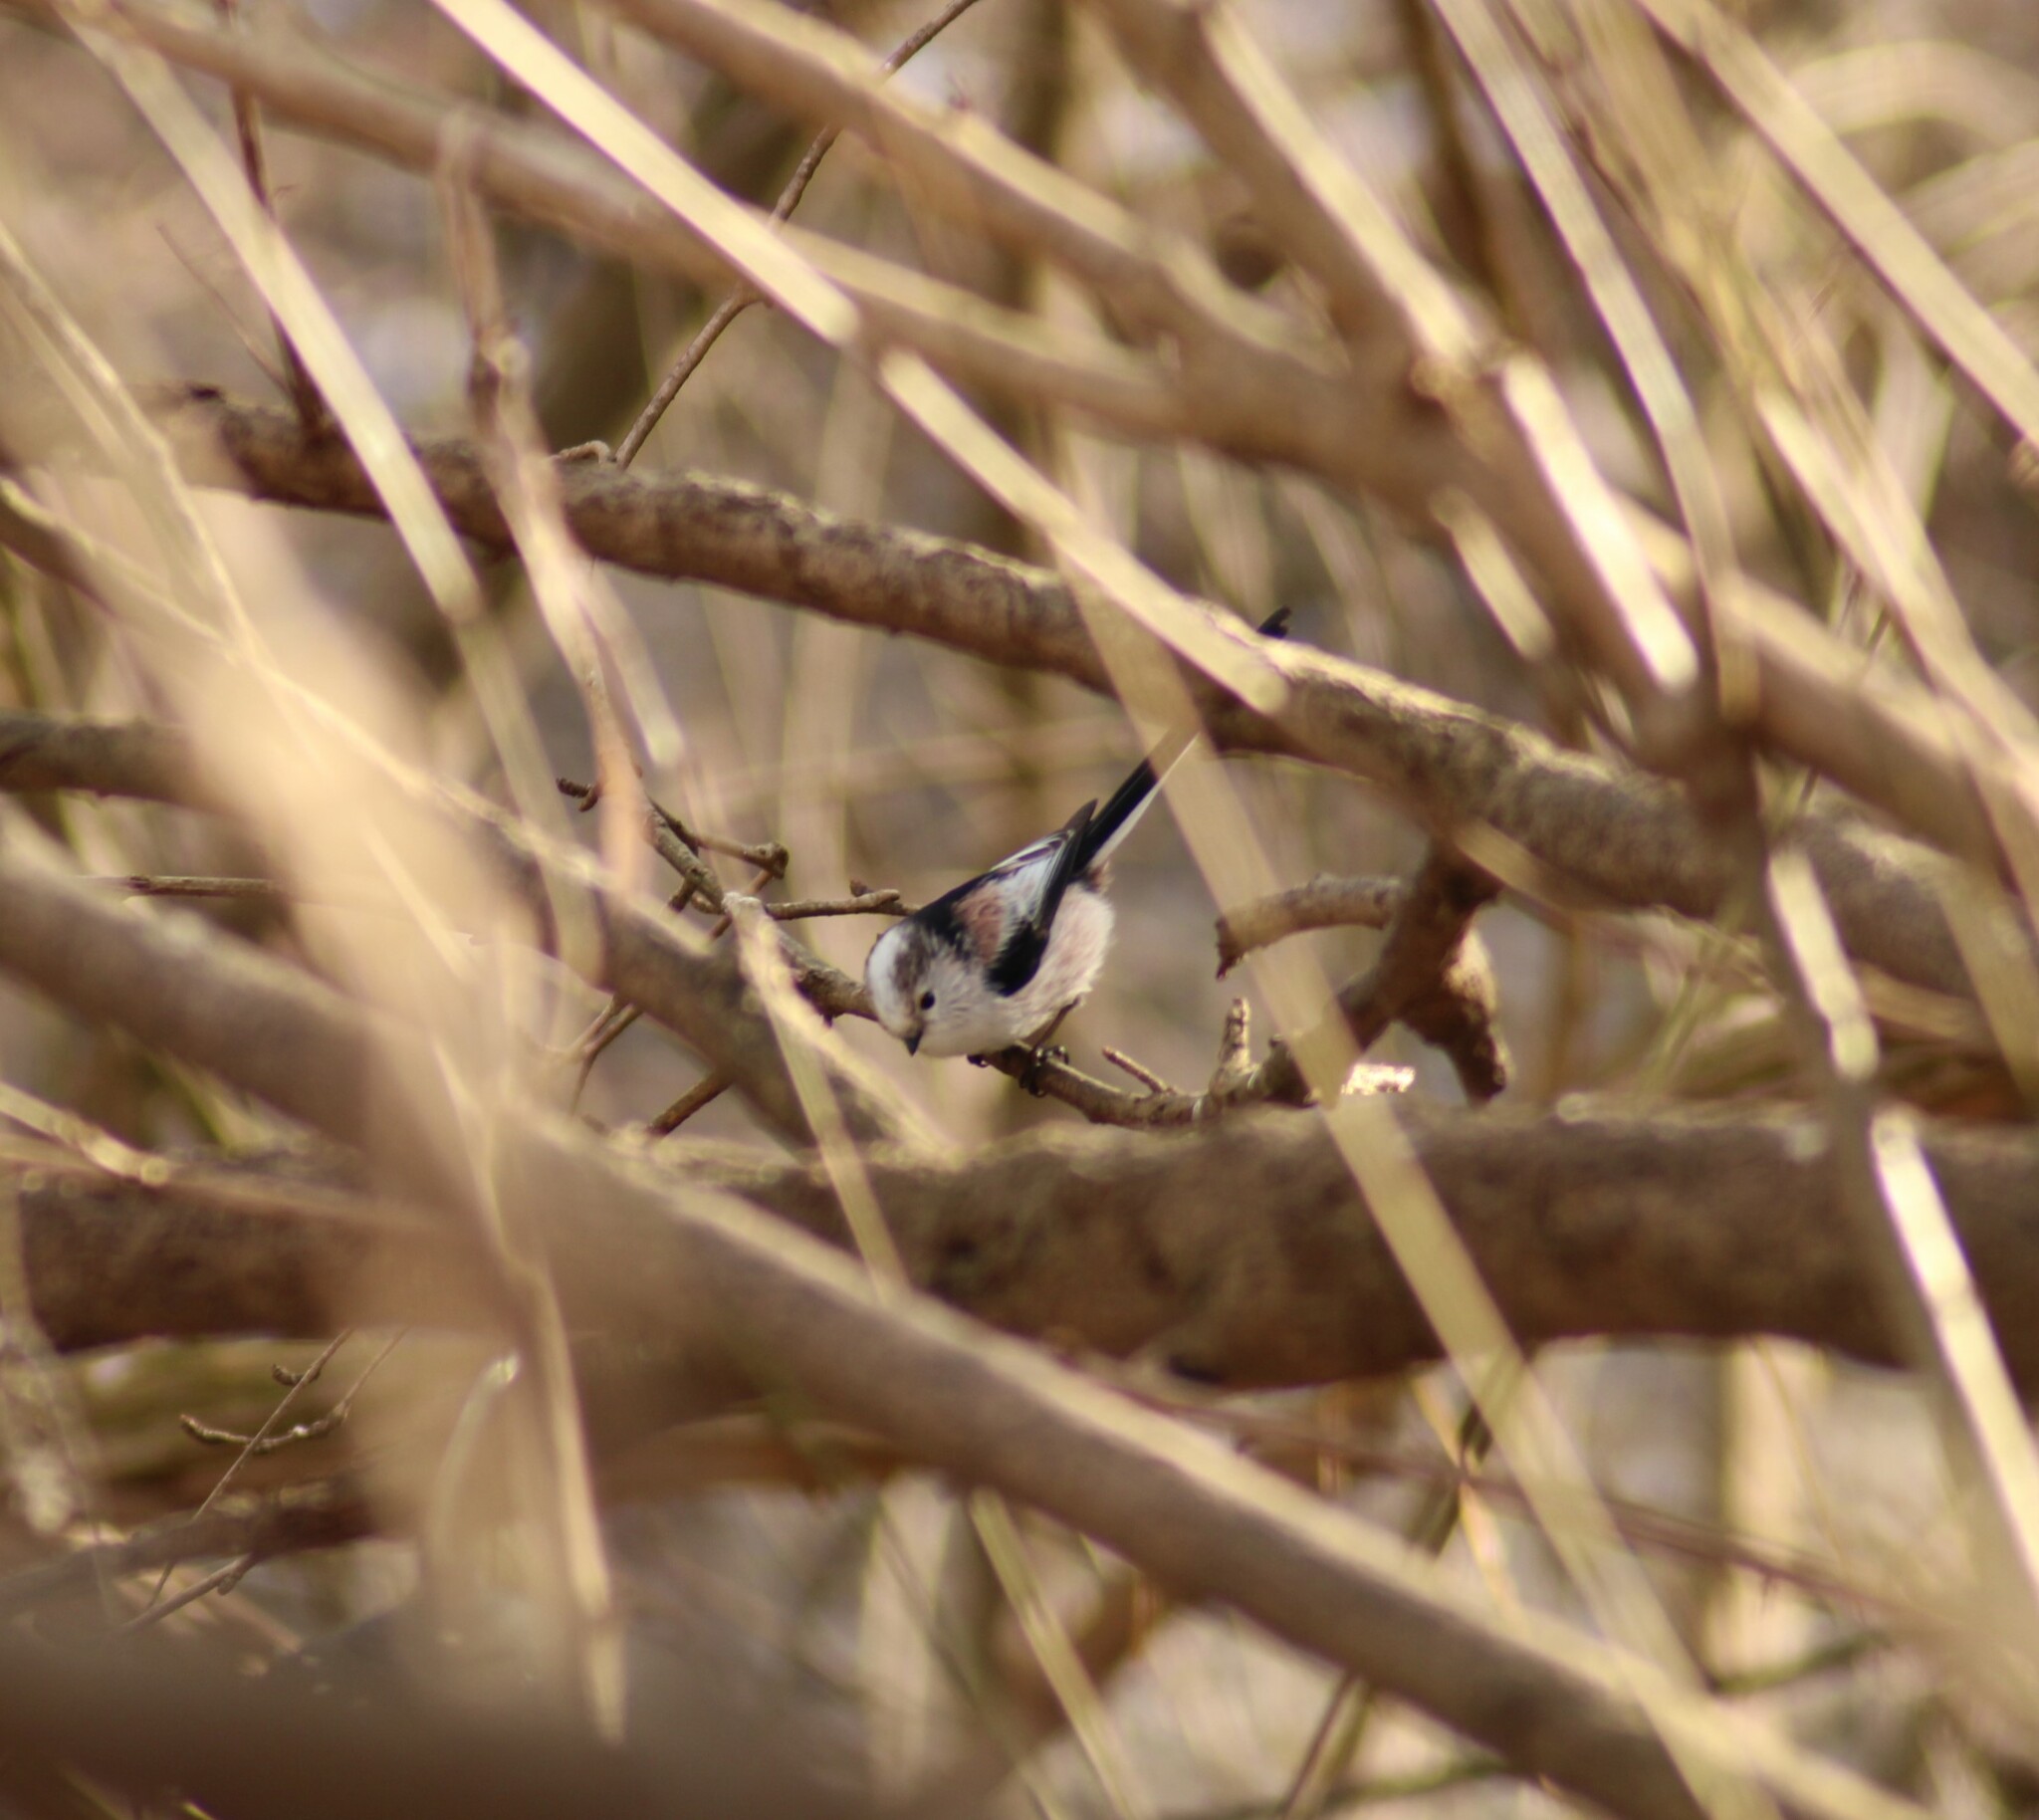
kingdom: Animalia
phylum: Chordata
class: Aves
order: Passeriformes
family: Aegithalidae
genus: Aegithalos
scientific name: Aegithalos caudatus
